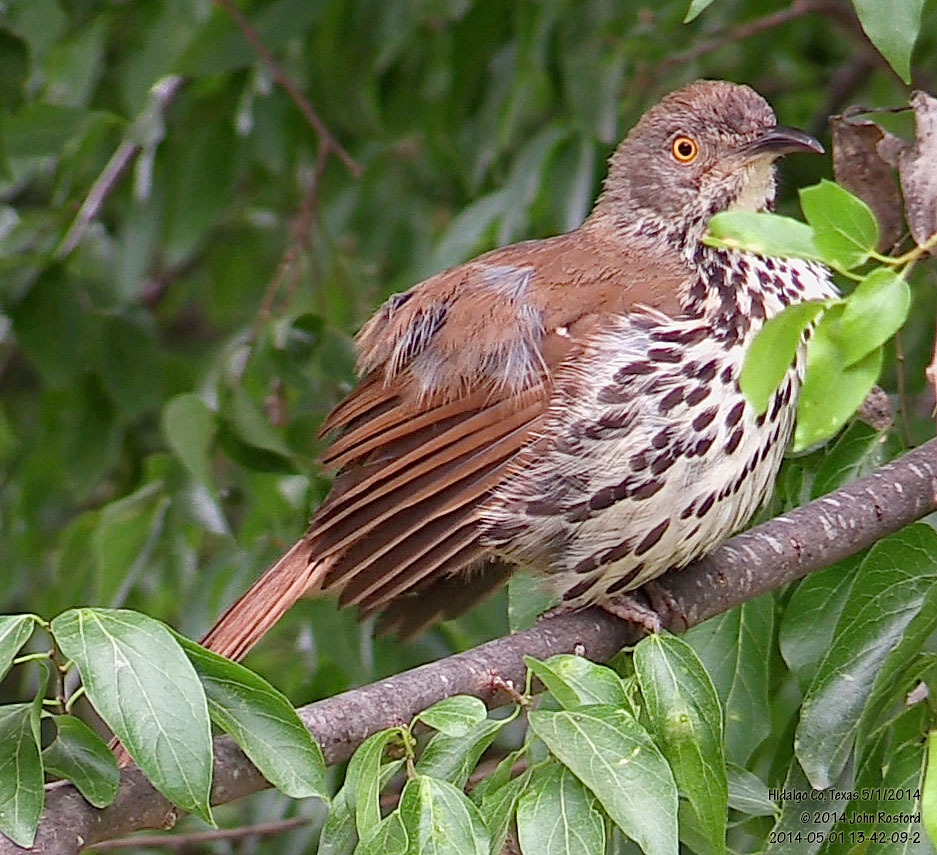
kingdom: Animalia
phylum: Chordata
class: Aves
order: Passeriformes
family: Mimidae
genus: Toxostoma
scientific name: Toxostoma longirostre
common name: Long-billed thrasher
